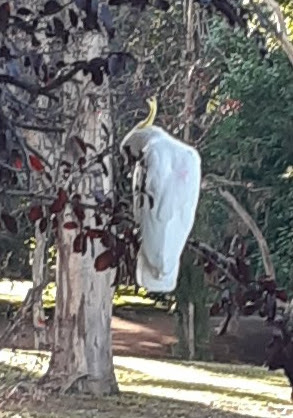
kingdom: Animalia
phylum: Chordata
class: Aves
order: Psittaciformes
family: Psittacidae
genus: Cacatua
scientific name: Cacatua galerita
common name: Sulphur-crested cockatoo
